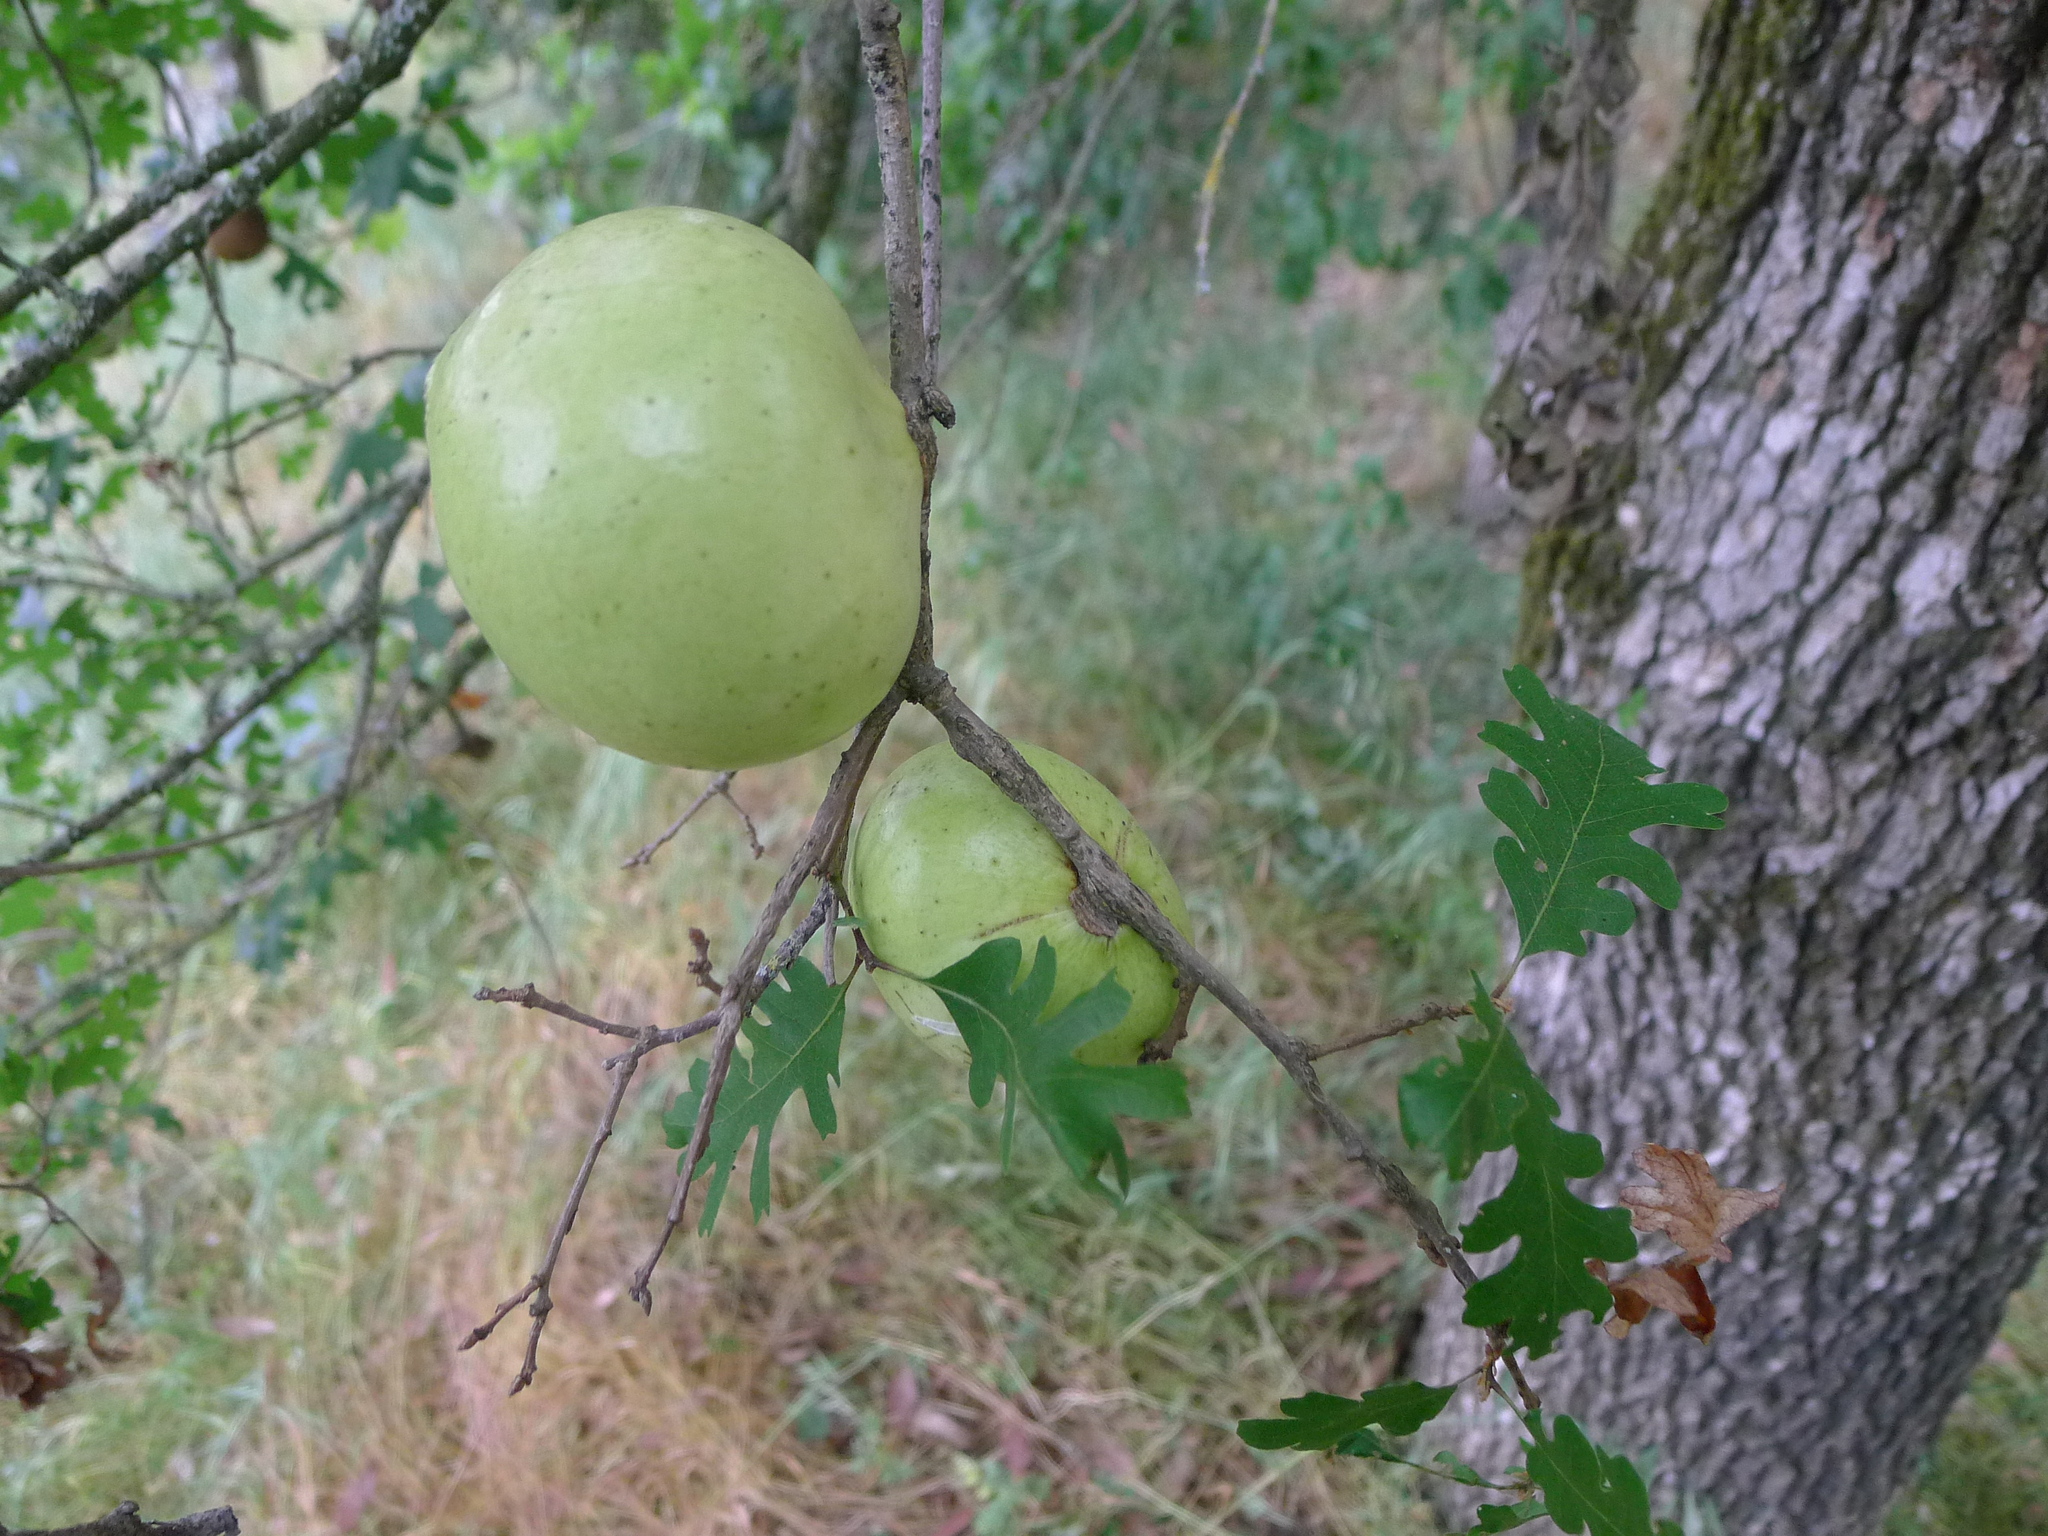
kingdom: Animalia
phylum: Arthropoda
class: Insecta
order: Hymenoptera
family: Cynipidae
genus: Andricus
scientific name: Andricus quercuscalifornicus
